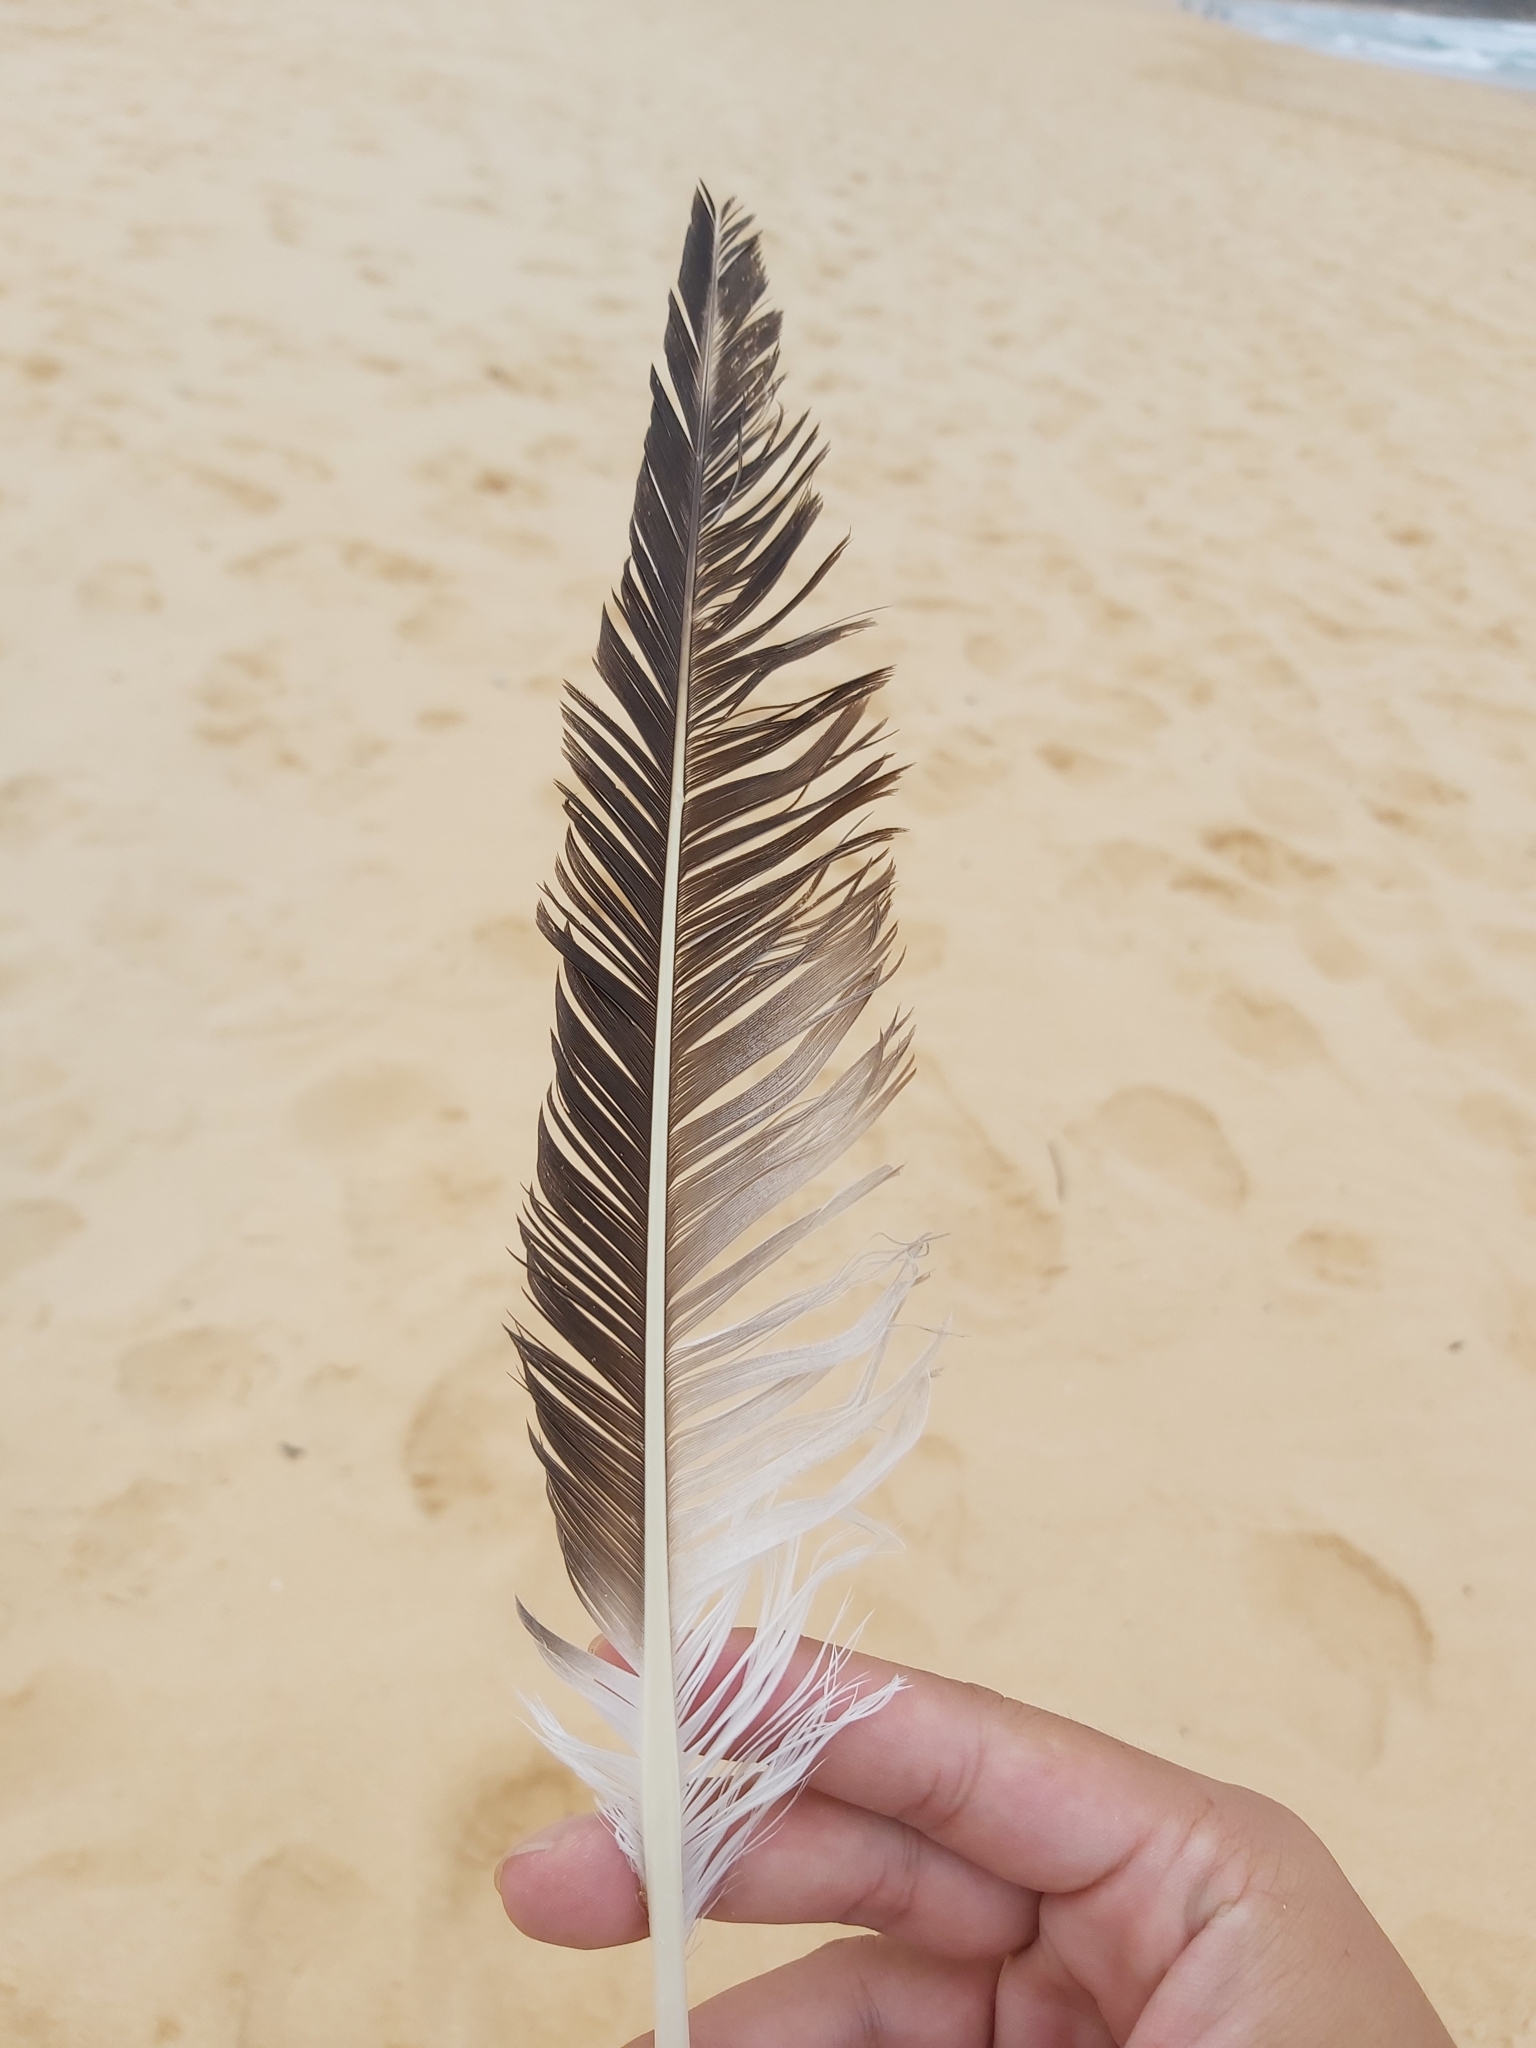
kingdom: Animalia
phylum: Chordata
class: Aves
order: Suliformes
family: Sulidae
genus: Morus
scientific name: Morus serrator
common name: Australasian gannet
